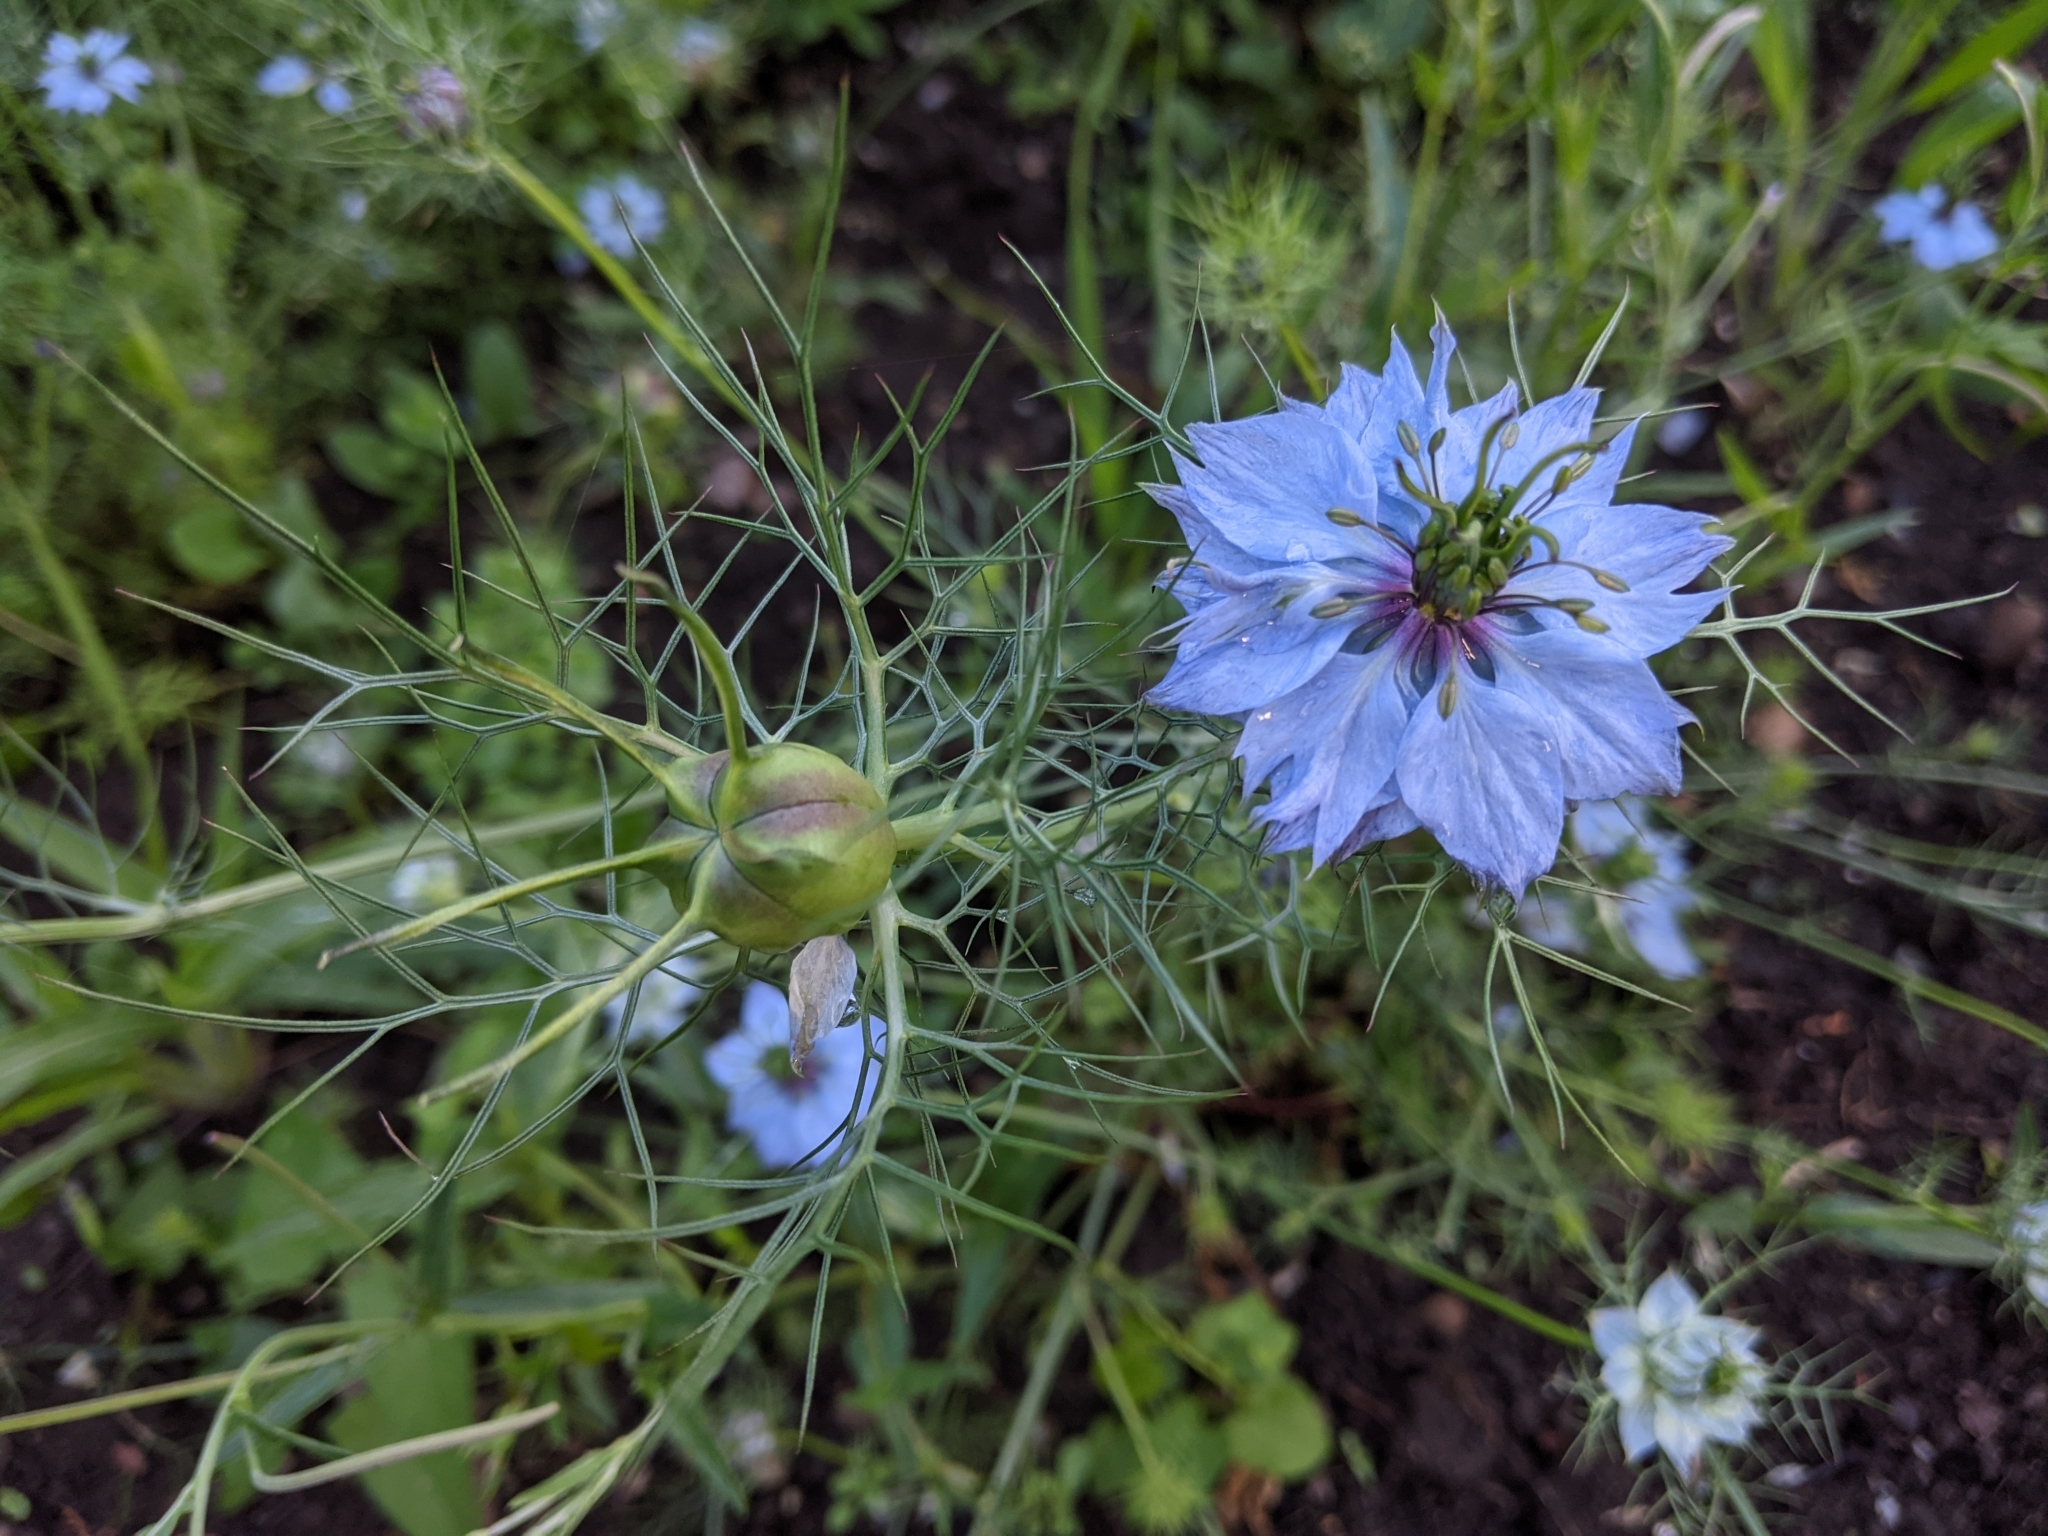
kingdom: Plantae
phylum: Tracheophyta
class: Magnoliopsida
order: Ranunculales
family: Ranunculaceae
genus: Nigella
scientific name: Nigella damascena
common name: Love-in-a-mist
